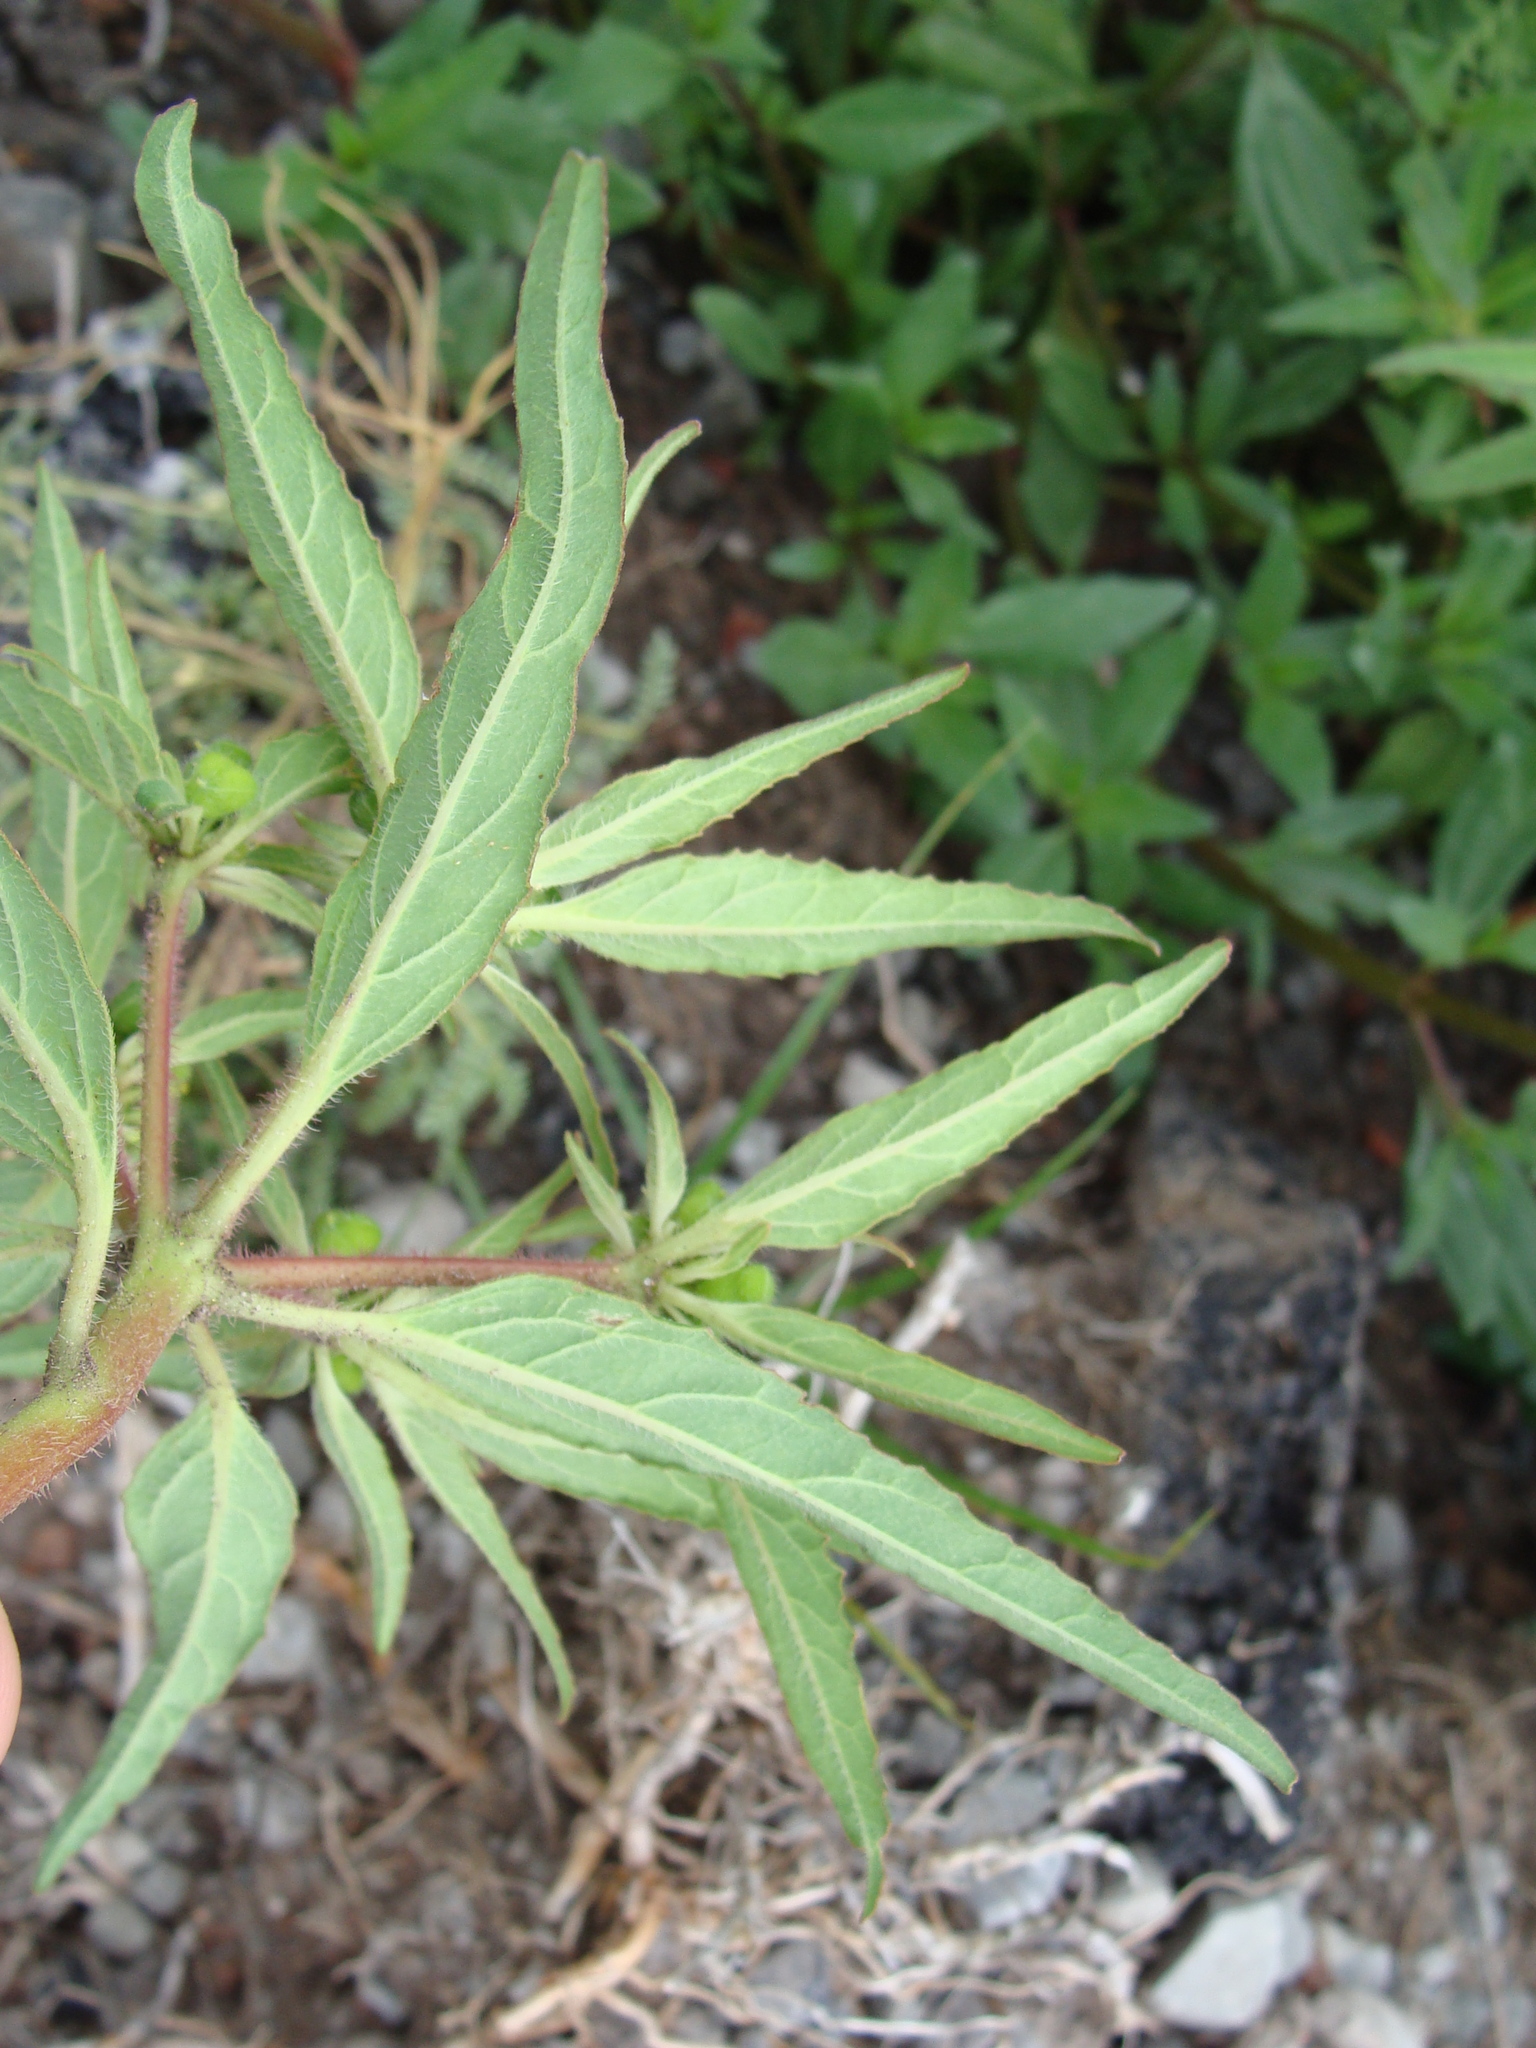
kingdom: Plantae
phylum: Tracheophyta
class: Magnoliopsida
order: Malpighiales
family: Euphorbiaceae
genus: Euphorbia
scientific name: Euphorbia tubadenia
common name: Spurge
